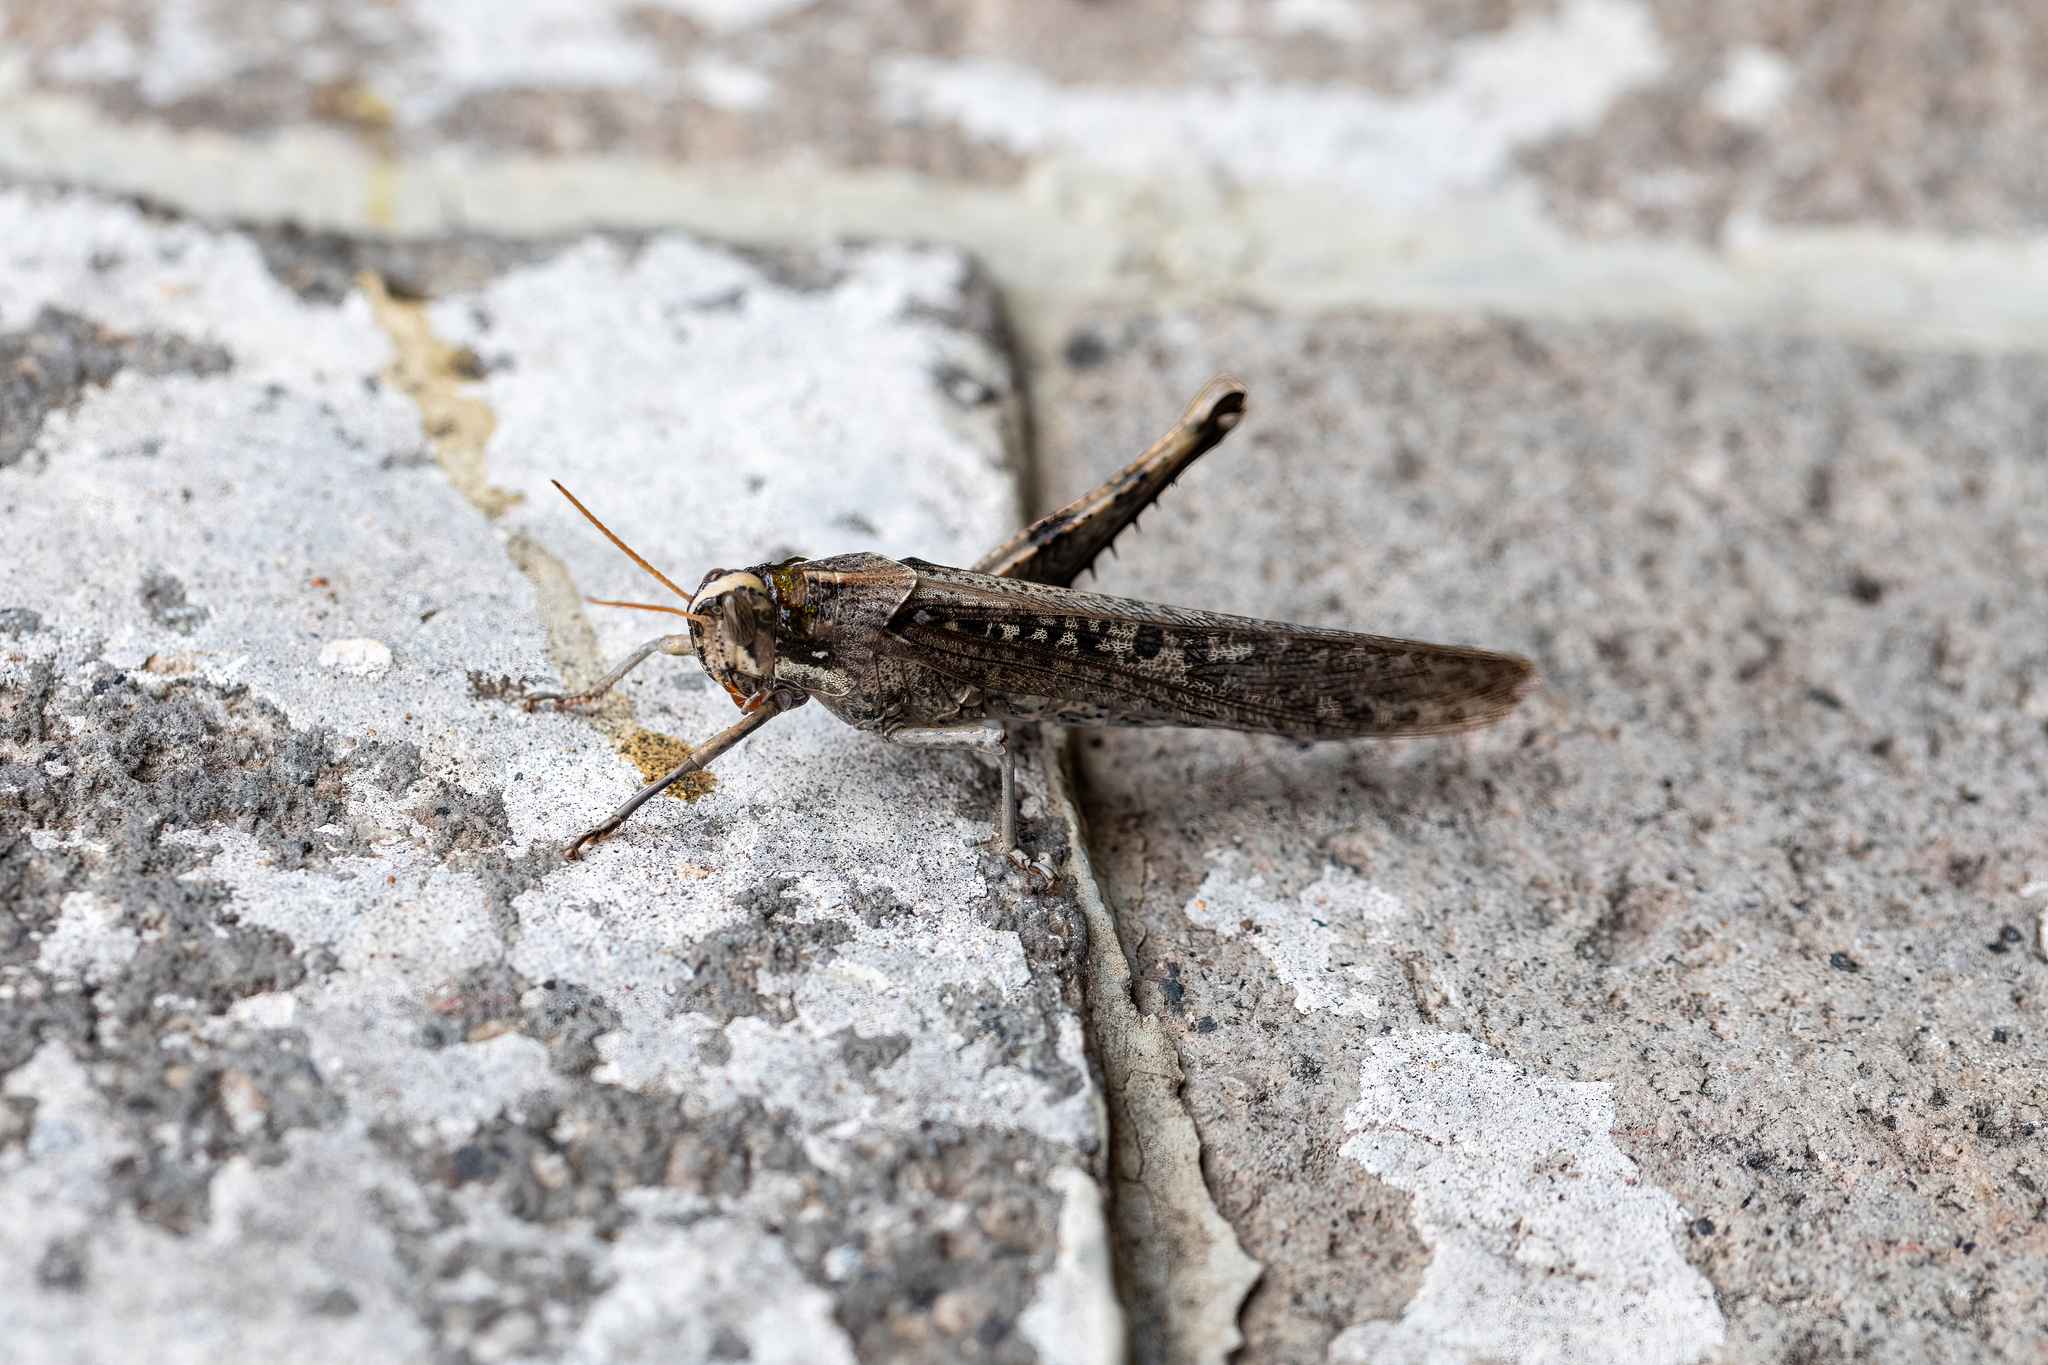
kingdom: Animalia
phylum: Arthropoda
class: Insecta
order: Orthoptera
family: Acrididae
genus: Schistocerca
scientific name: Schistocerca nitens
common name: Vagrant grasshopper
